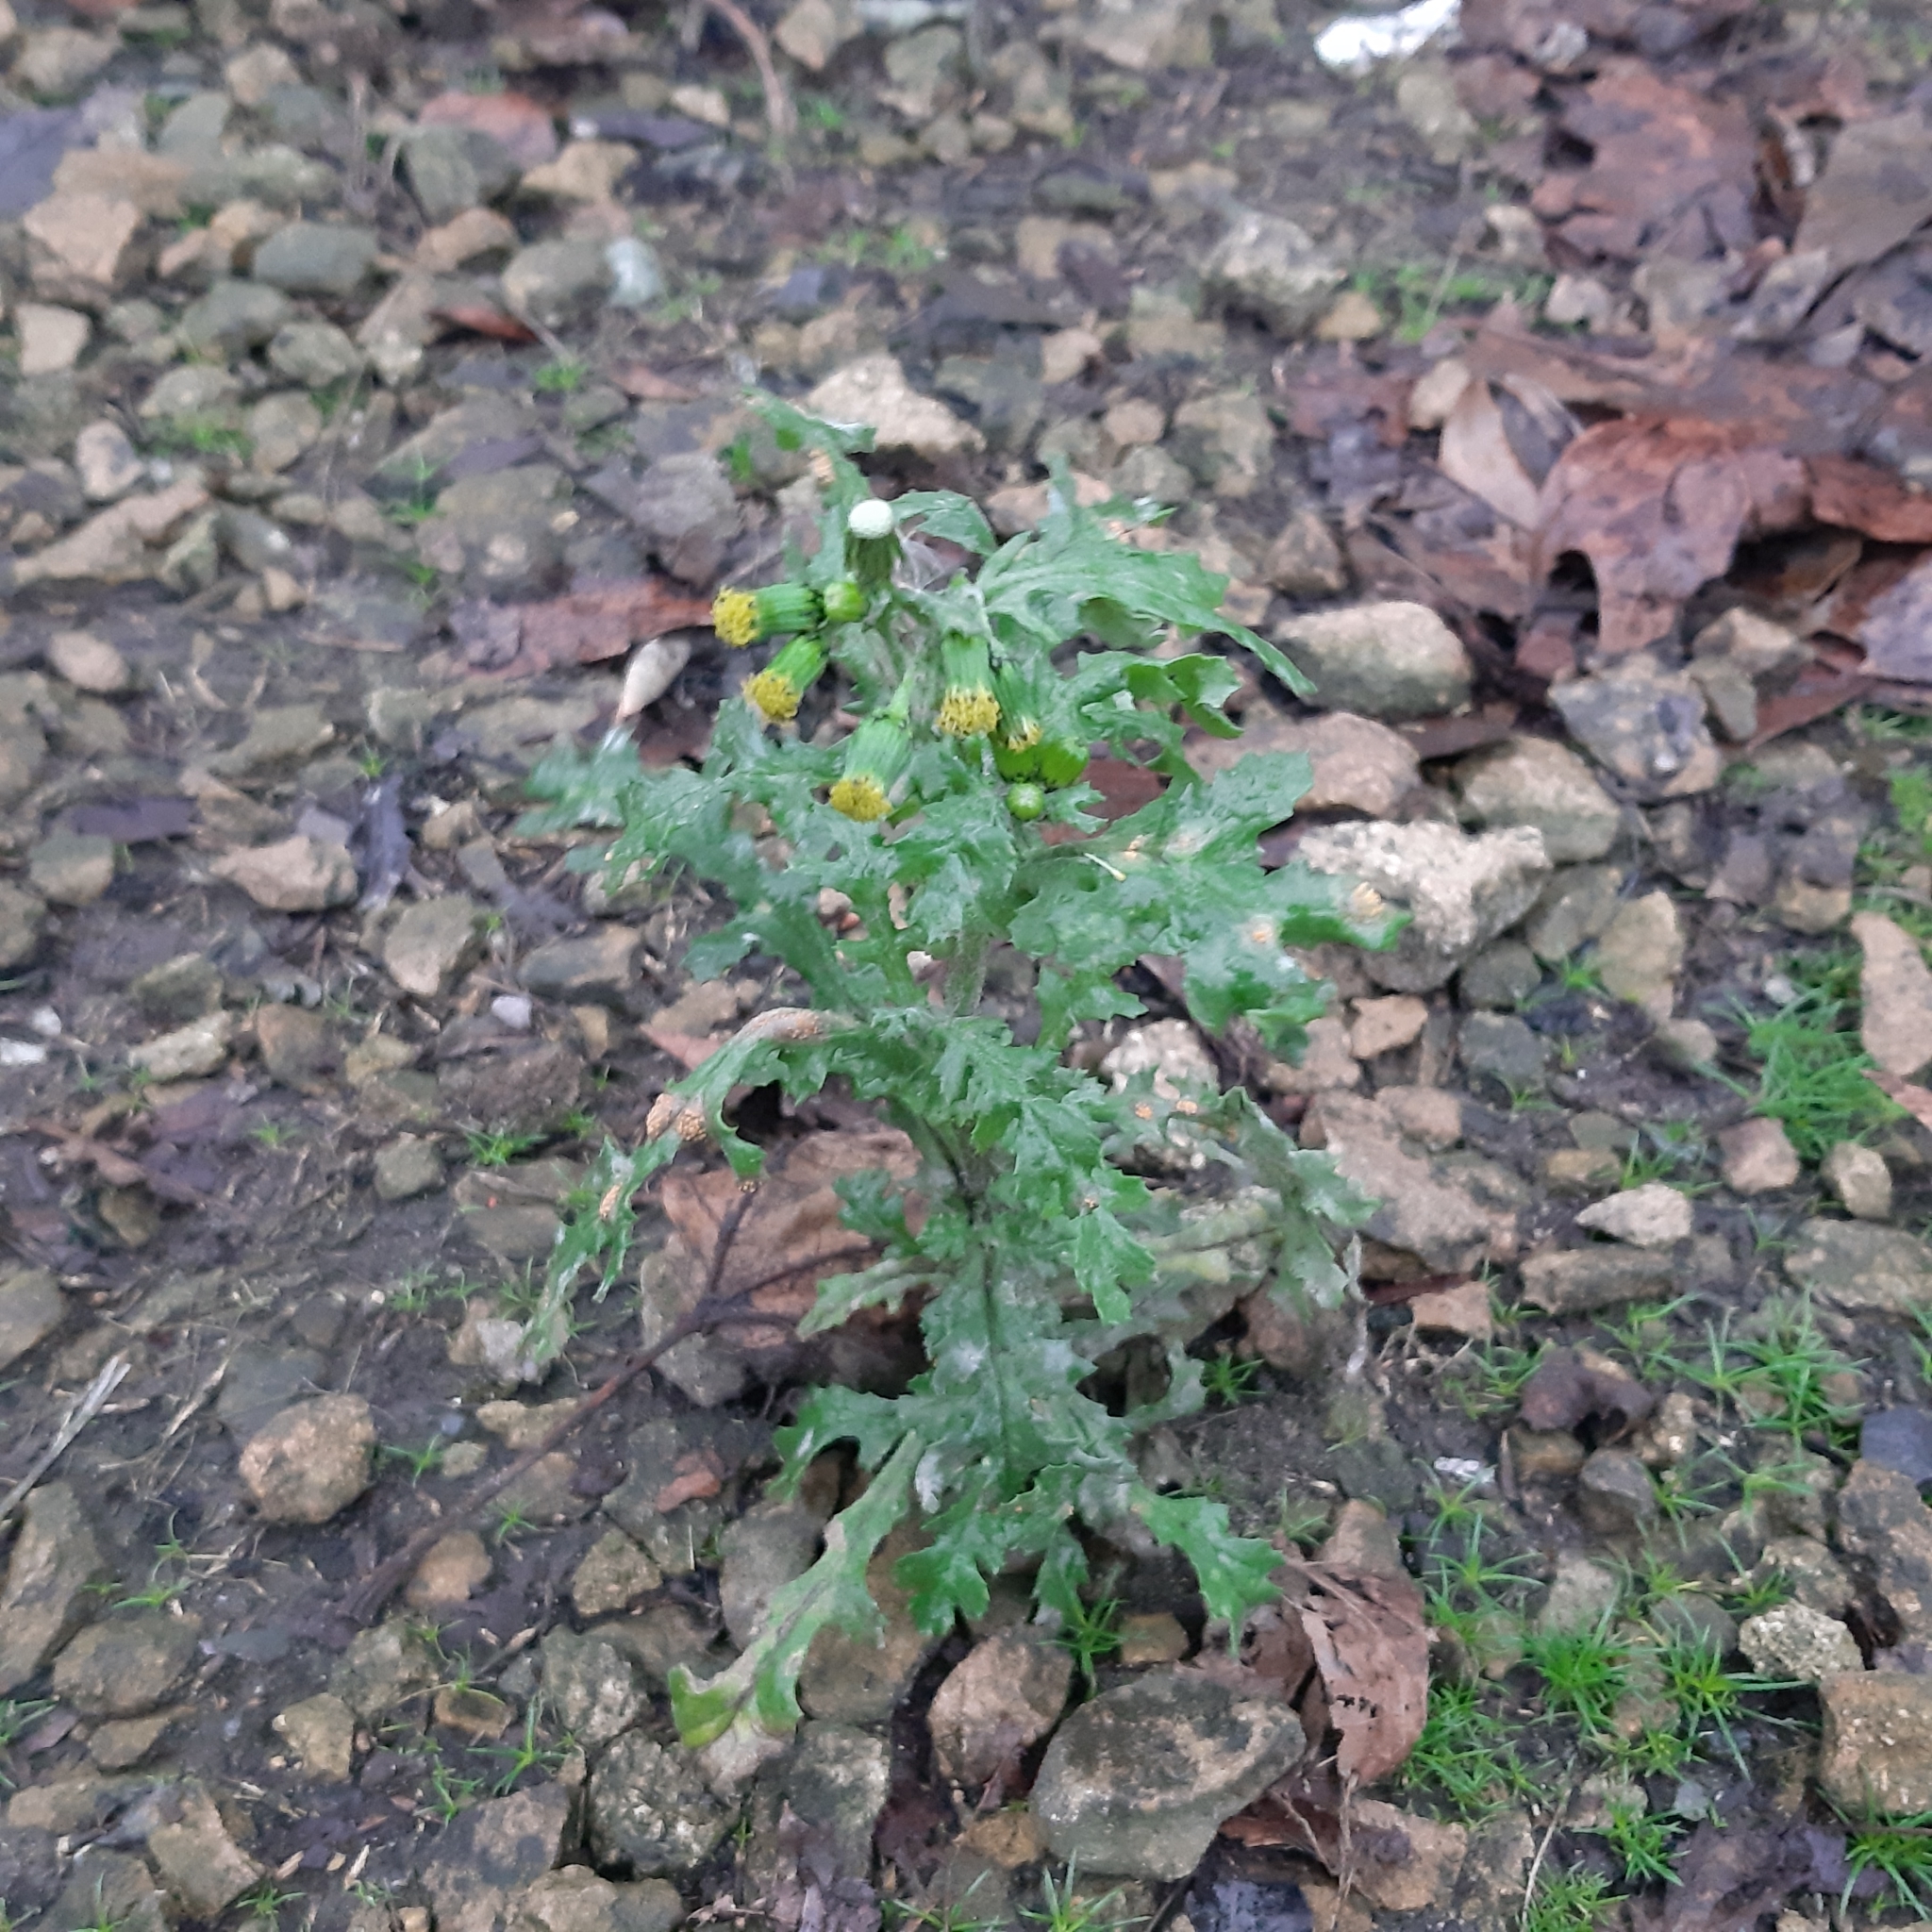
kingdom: Plantae
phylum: Tracheophyta
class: Magnoliopsida
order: Asterales
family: Asteraceae
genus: Senecio
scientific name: Senecio vulgaris
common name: Old-man-in-the-spring
